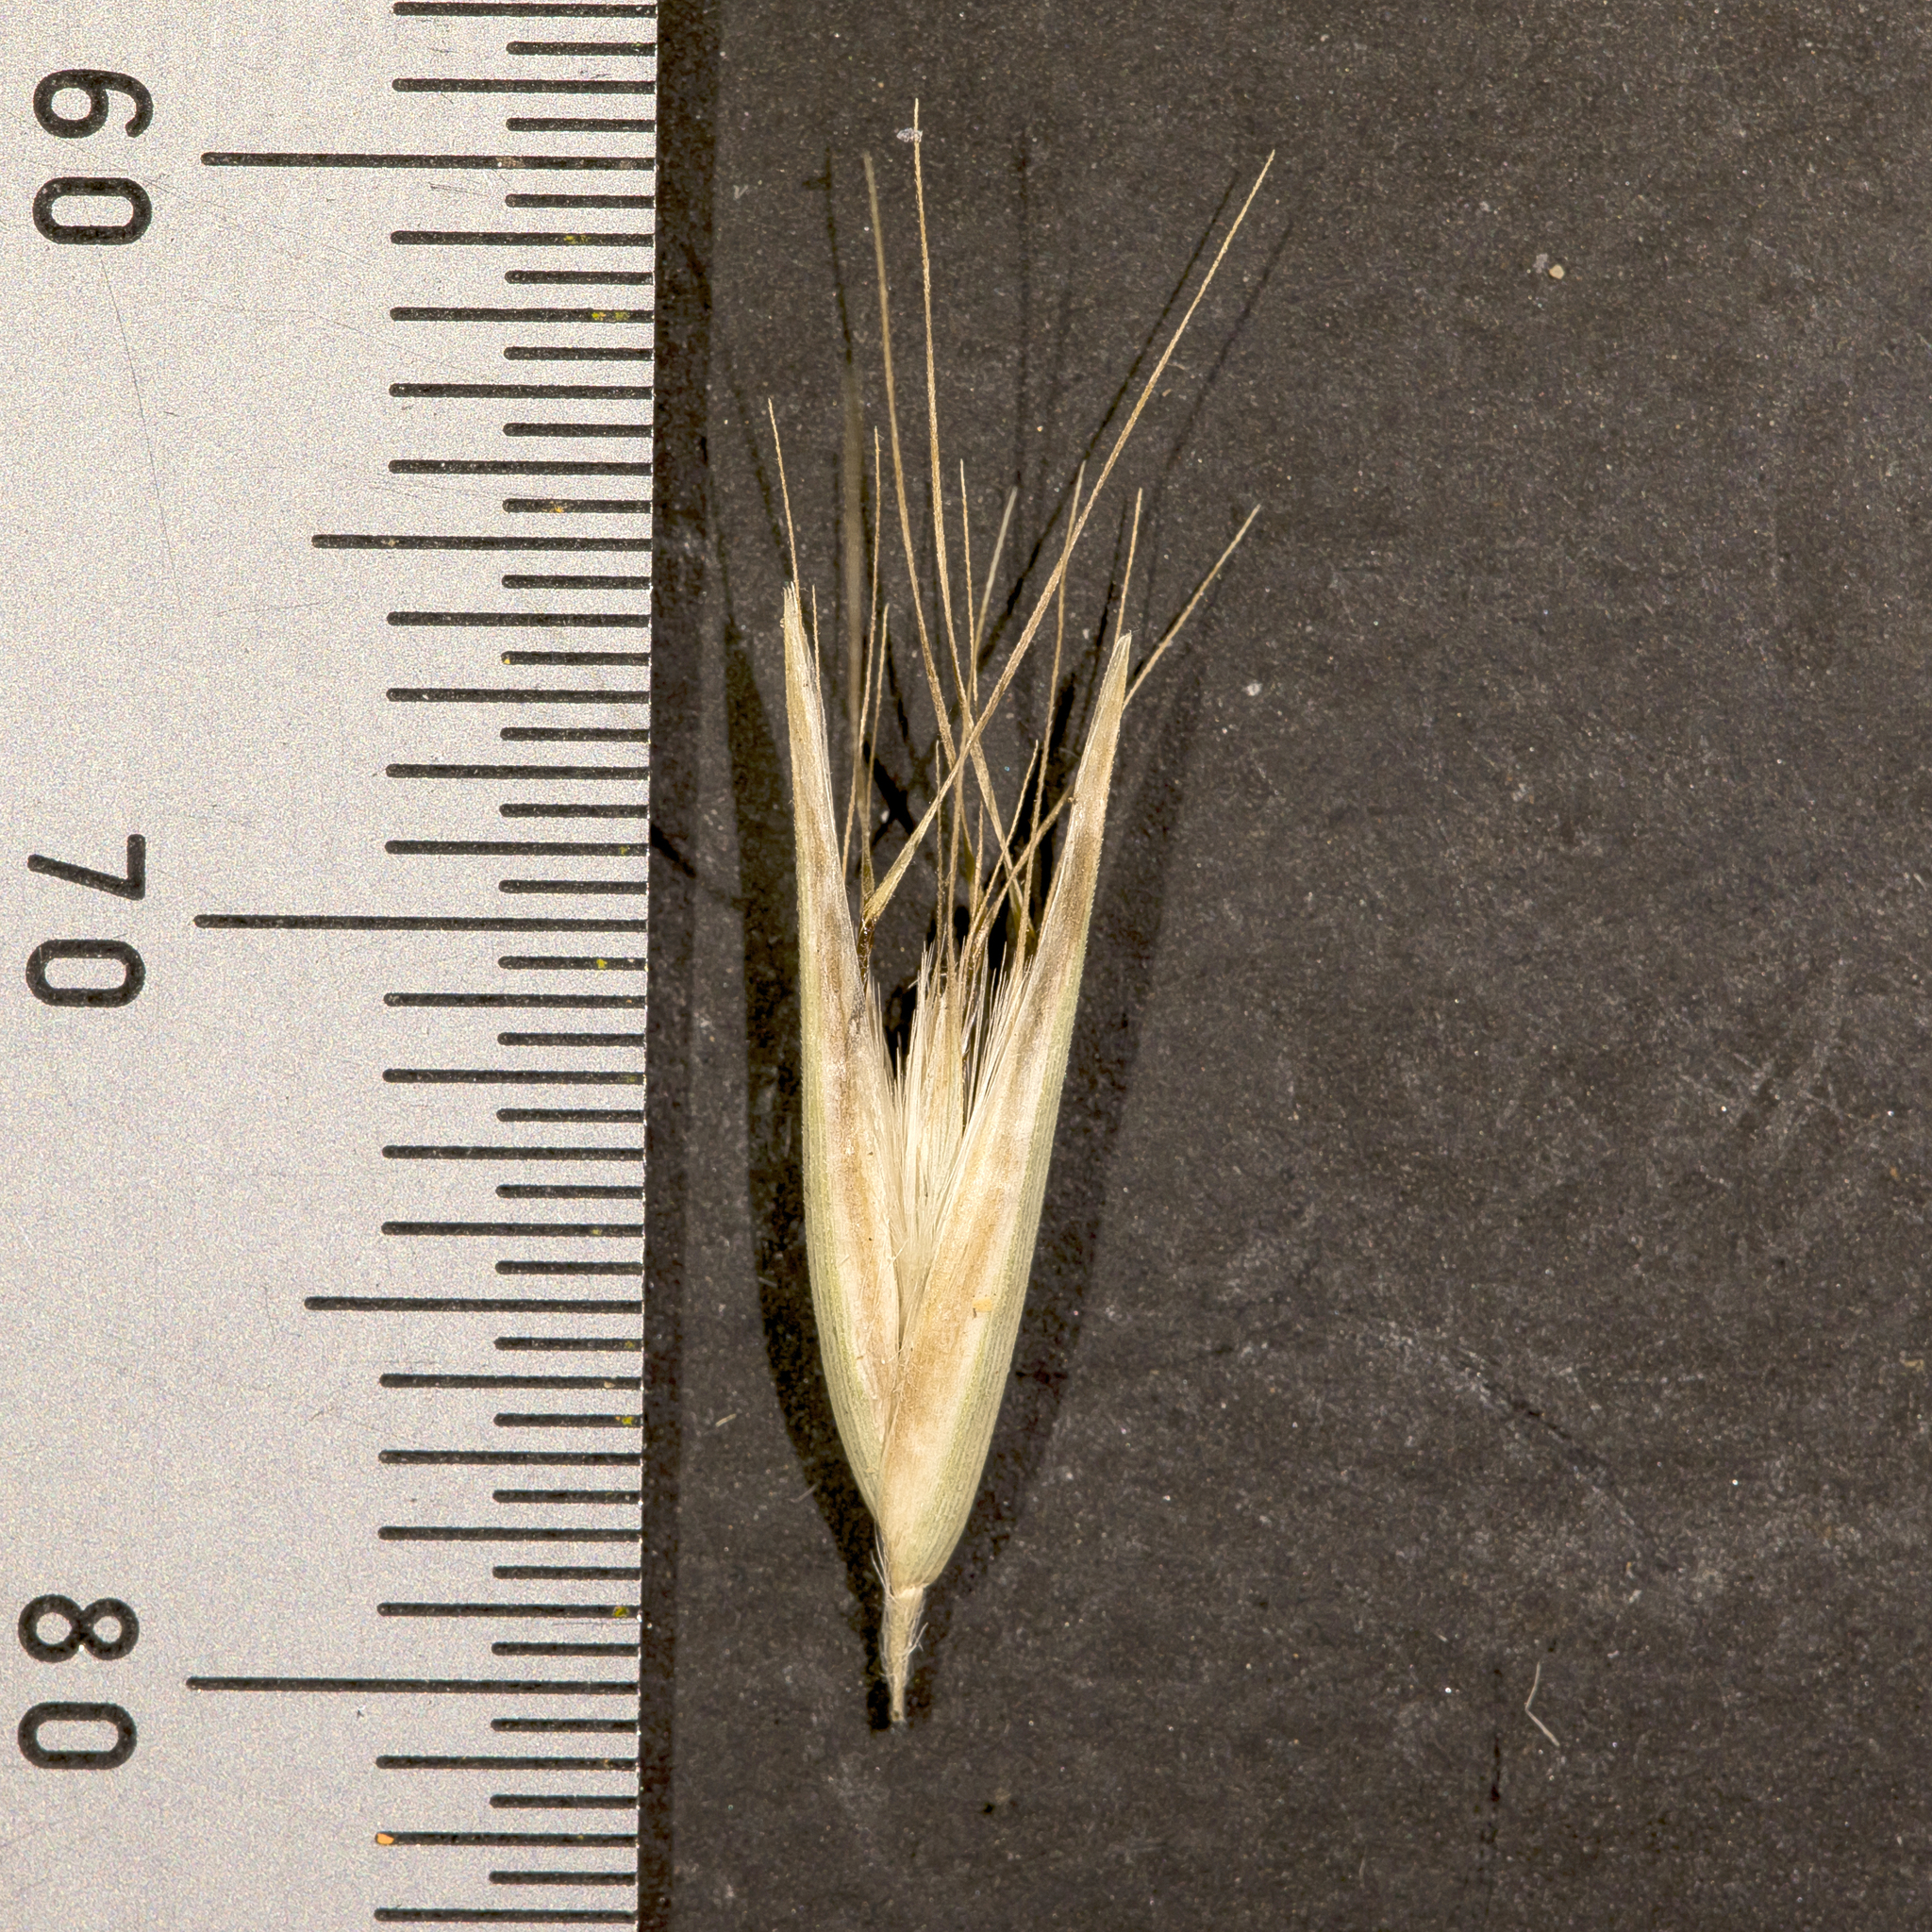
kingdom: Plantae
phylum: Tracheophyta
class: Liliopsida
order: Poales
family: Poaceae
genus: Rytidosperma
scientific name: Rytidosperma setaceum
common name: Small-flower wallaby grass
